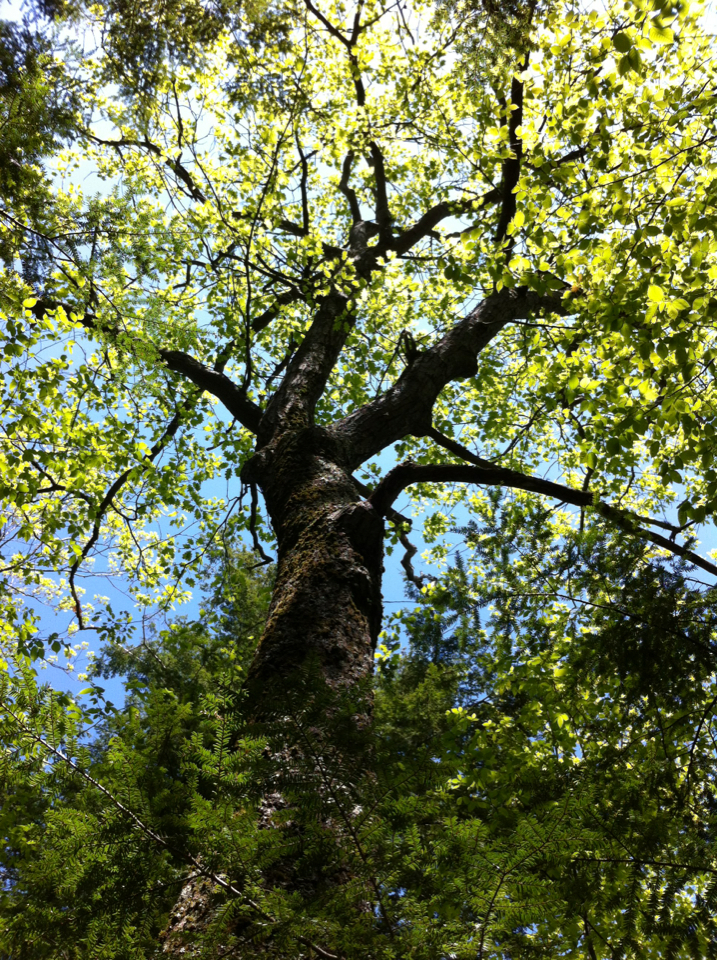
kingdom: Plantae
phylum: Tracheophyta
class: Magnoliopsida
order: Fagales
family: Fagaceae
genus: Quercus
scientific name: Quercus rubra
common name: Red oak
